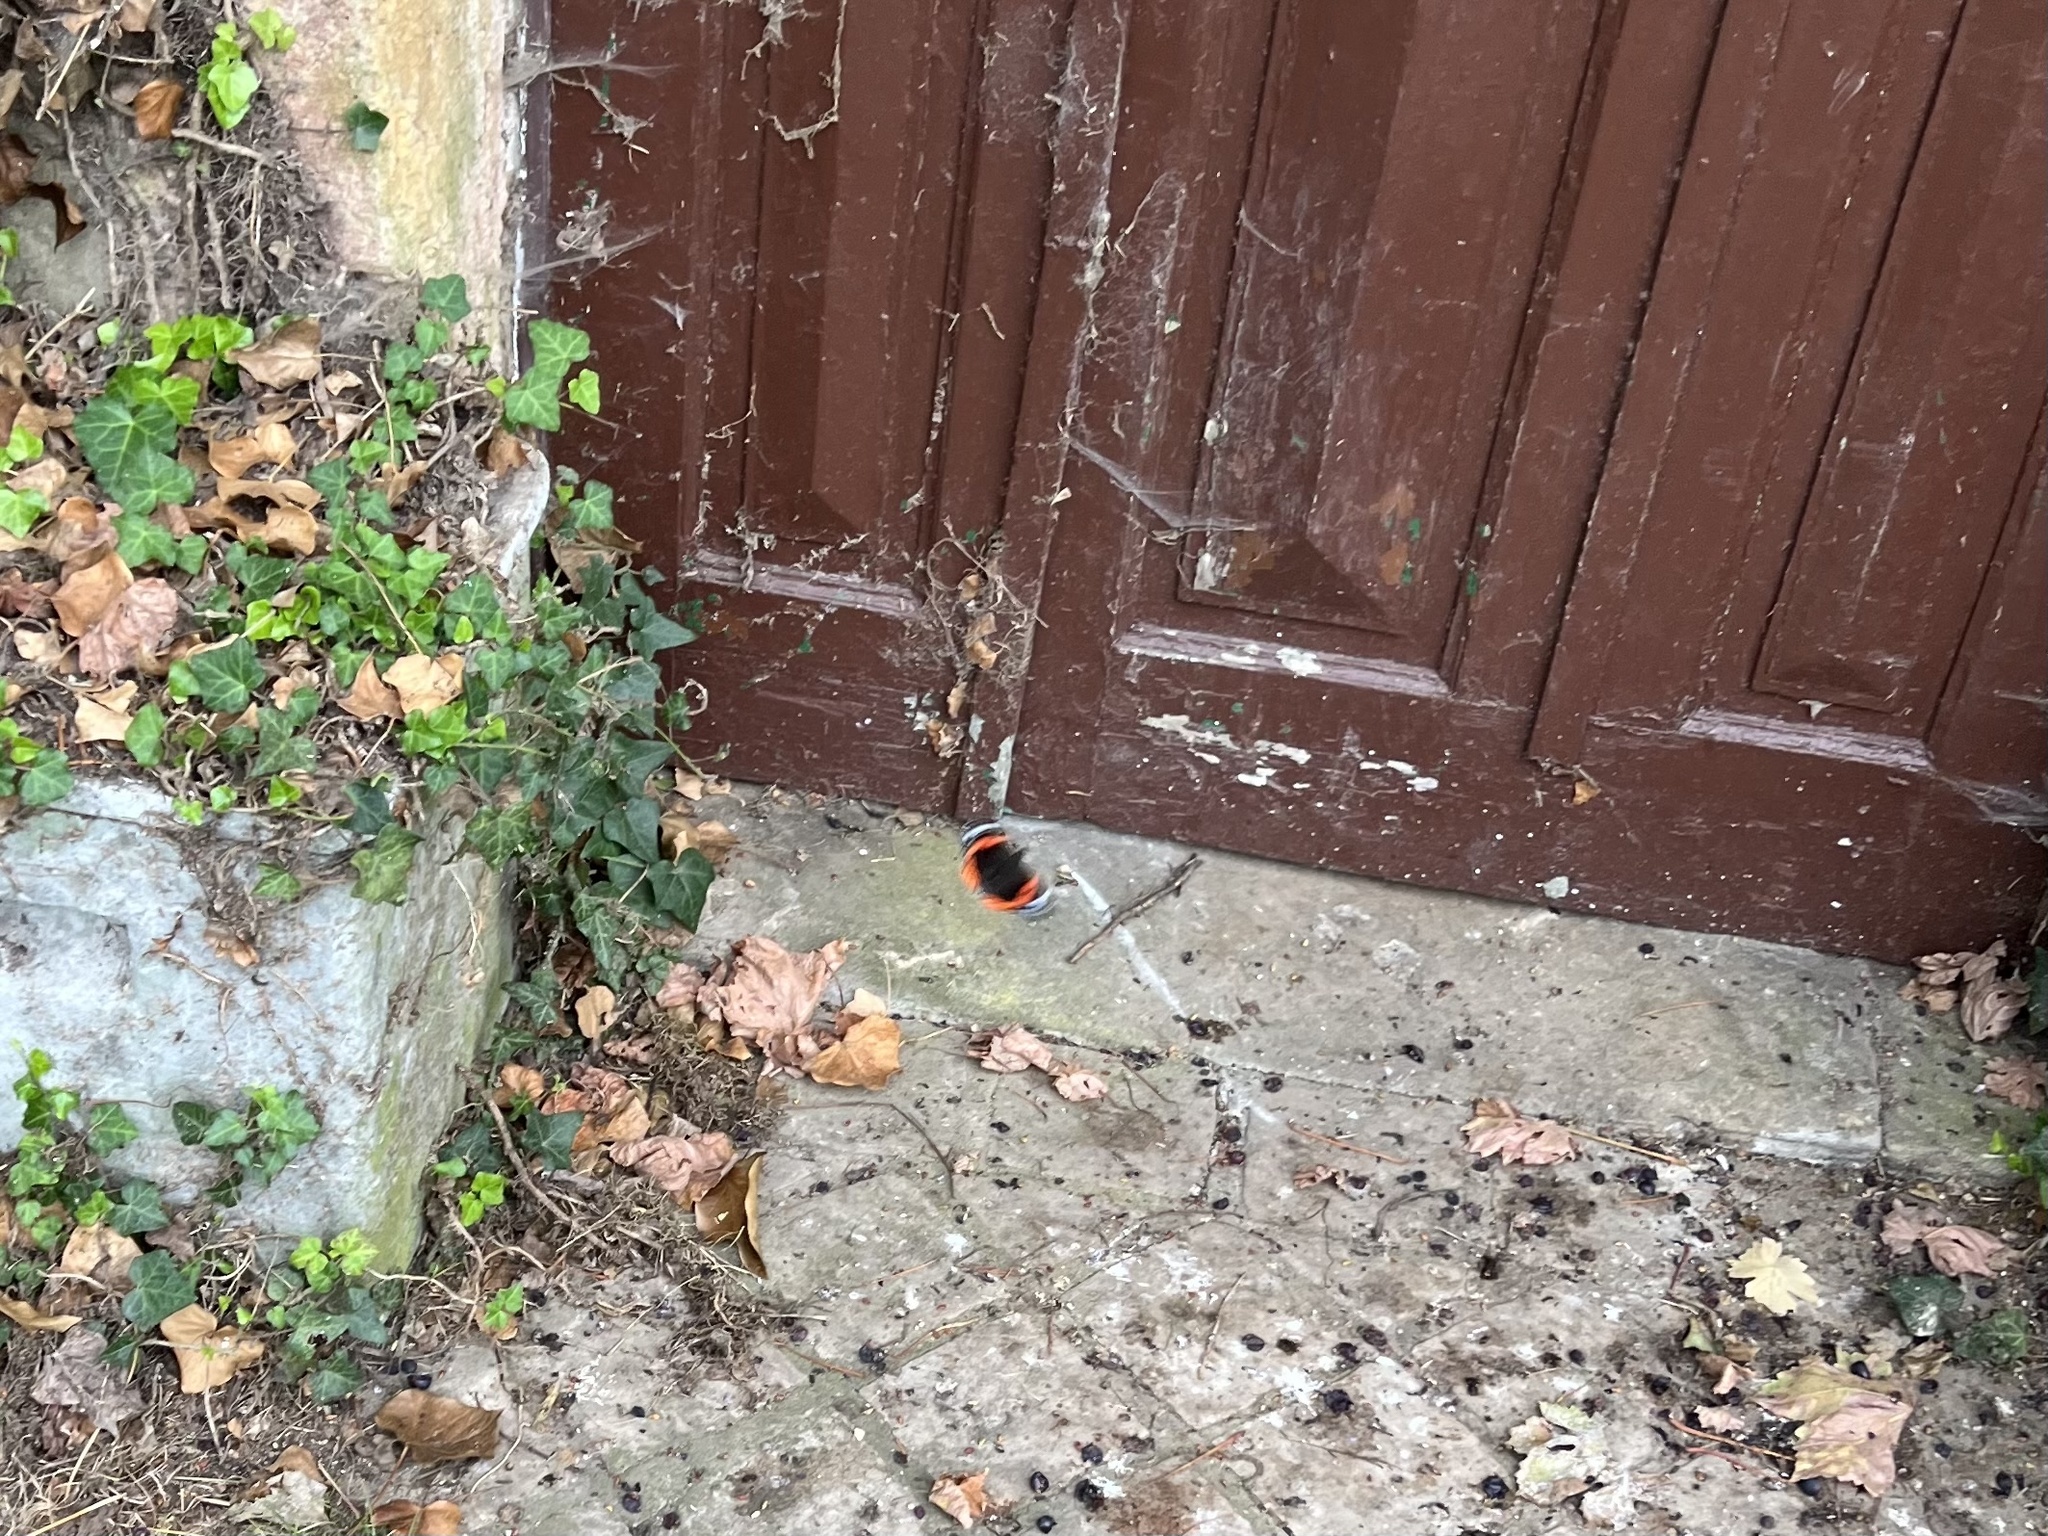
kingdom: Animalia
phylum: Arthropoda
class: Insecta
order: Lepidoptera
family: Nymphalidae
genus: Vanessa
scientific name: Vanessa atalanta
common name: Red admiral
